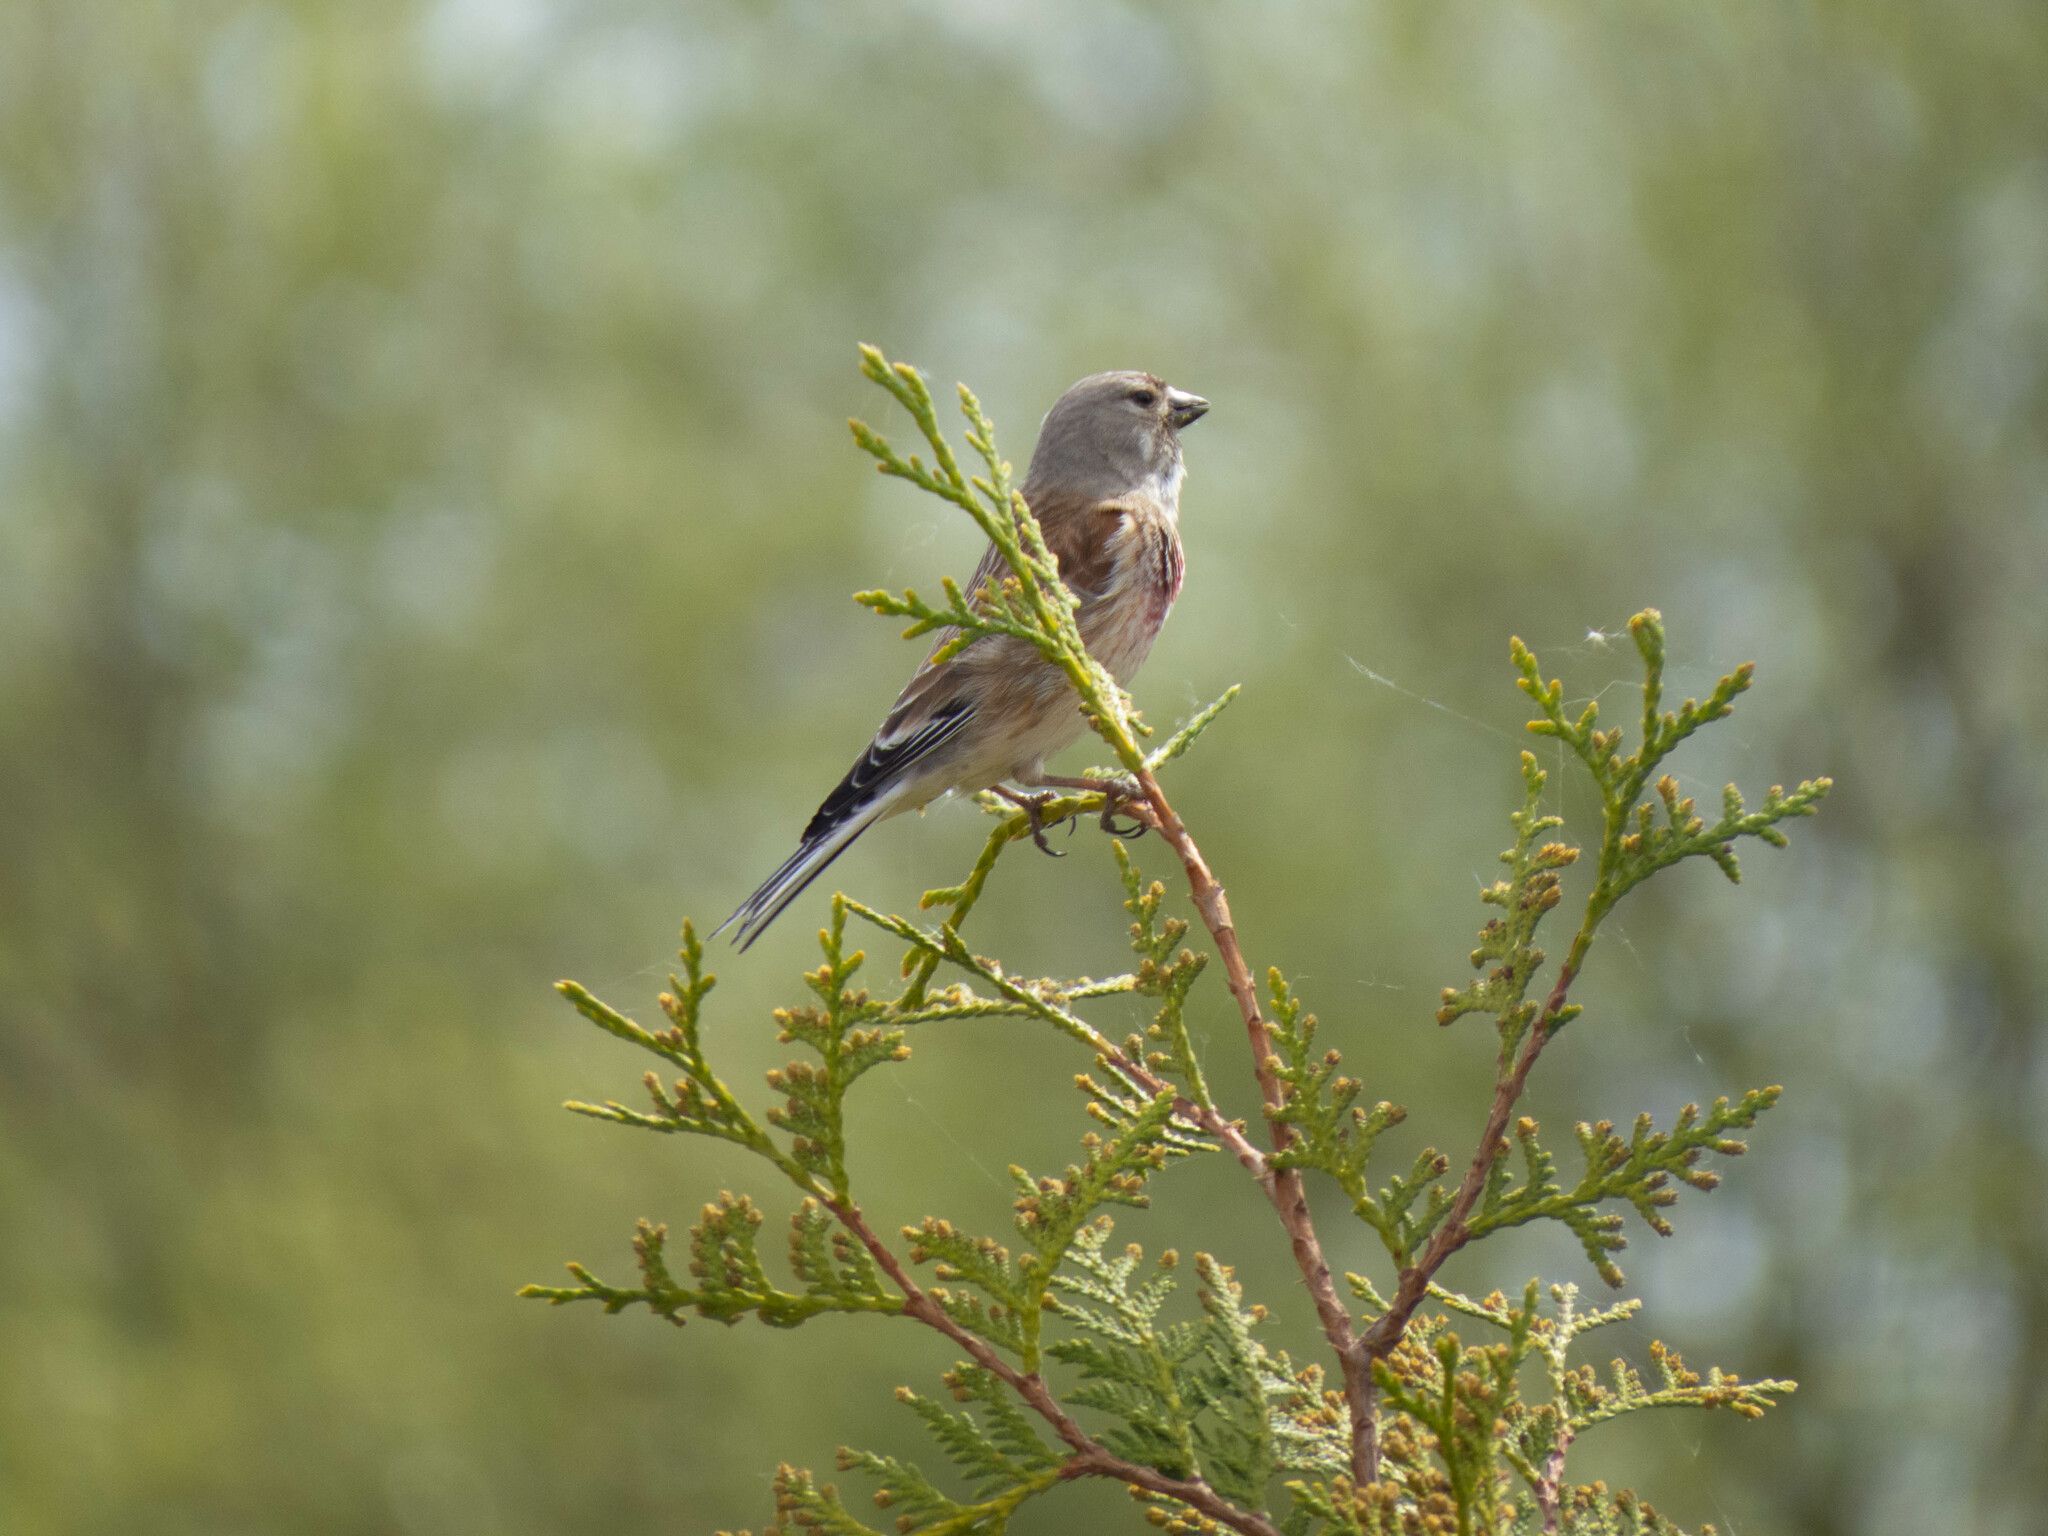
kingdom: Animalia
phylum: Chordata
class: Aves
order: Passeriformes
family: Fringillidae
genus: Linaria
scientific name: Linaria cannabina
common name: Common linnet
